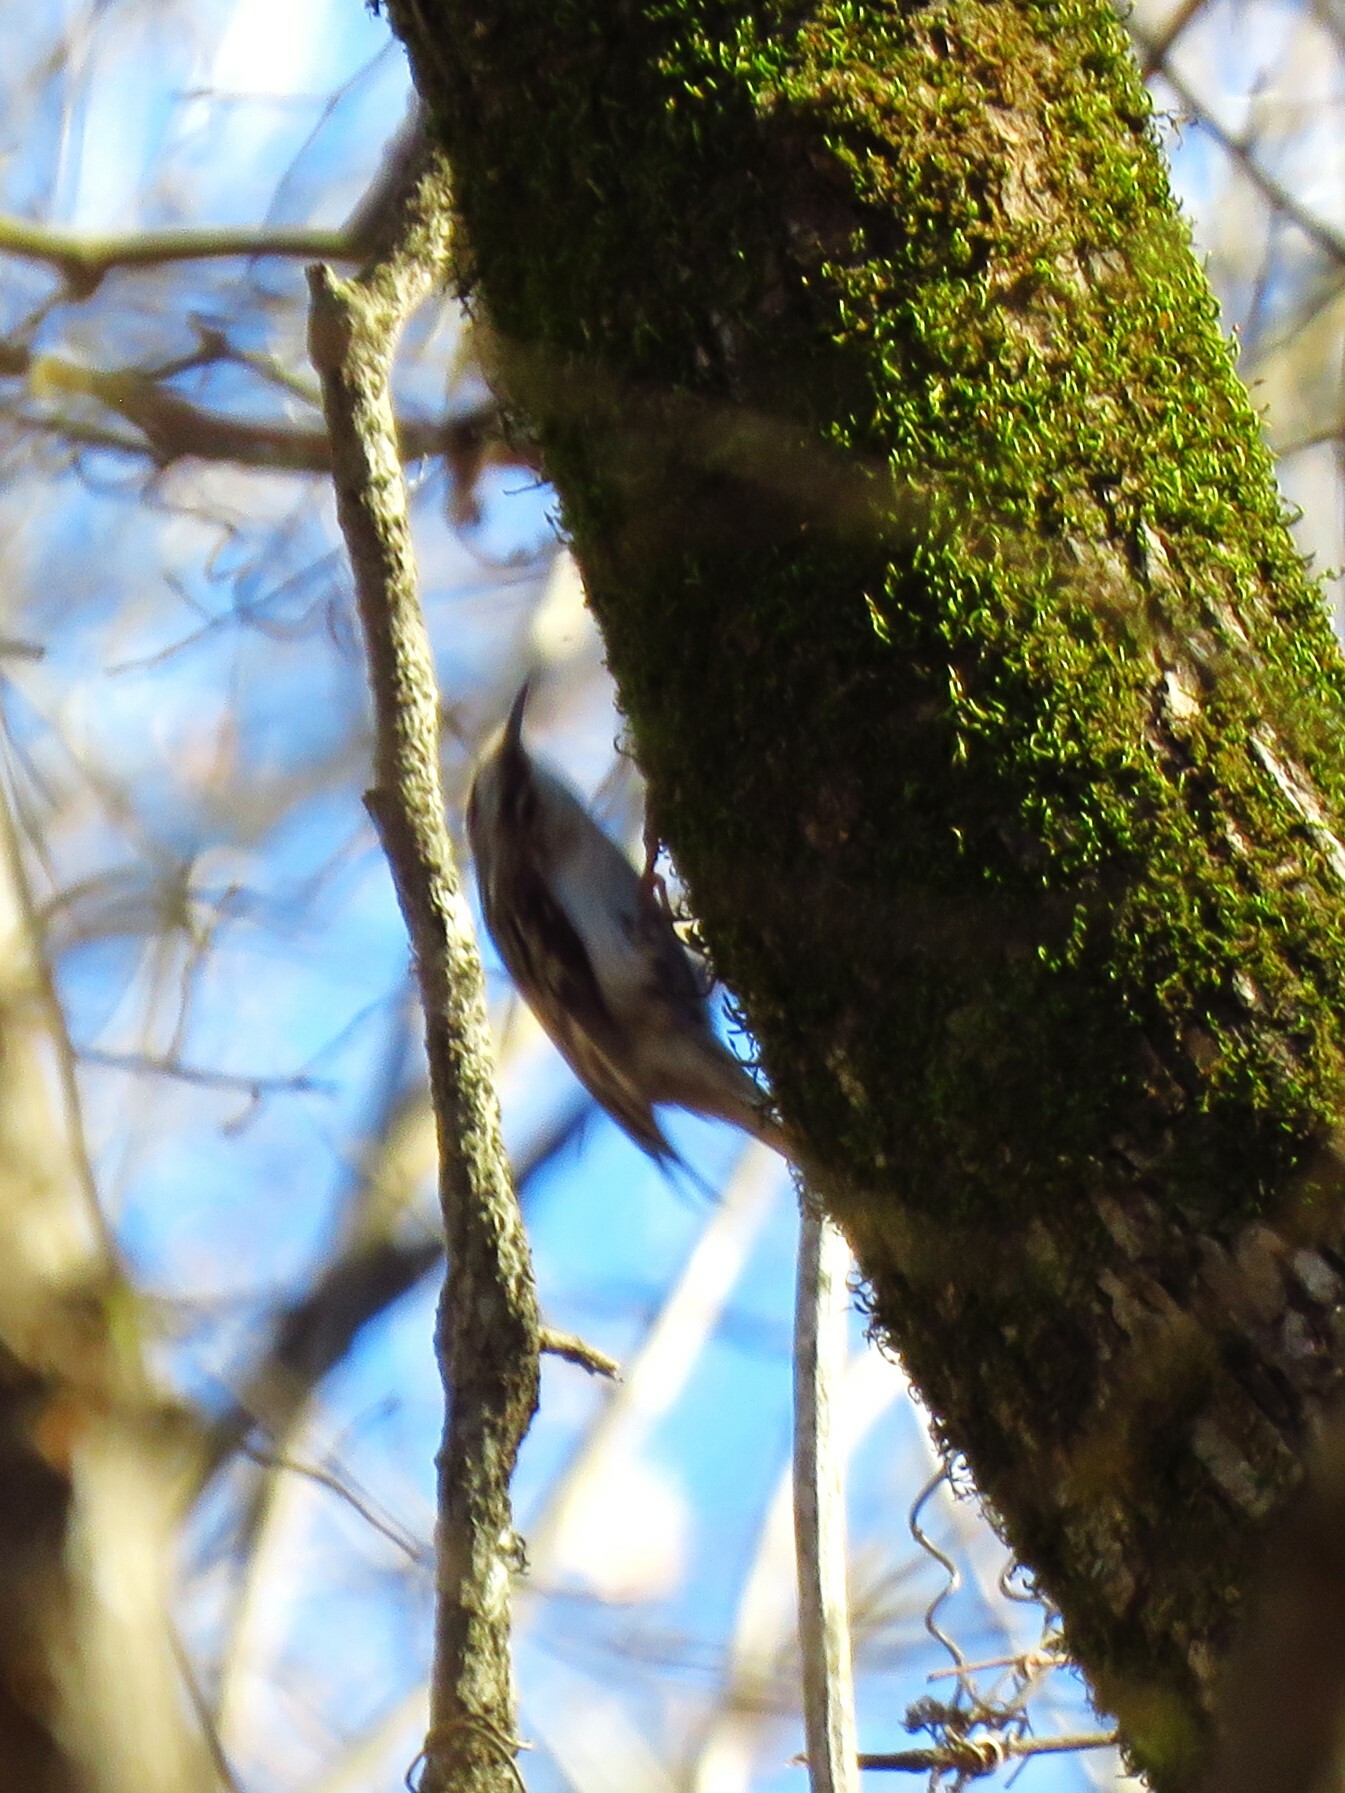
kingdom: Animalia
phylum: Chordata
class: Aves
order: Passeriformes
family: Certhiidae
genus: Certhia
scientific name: Certhia americana
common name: Brown creeper
